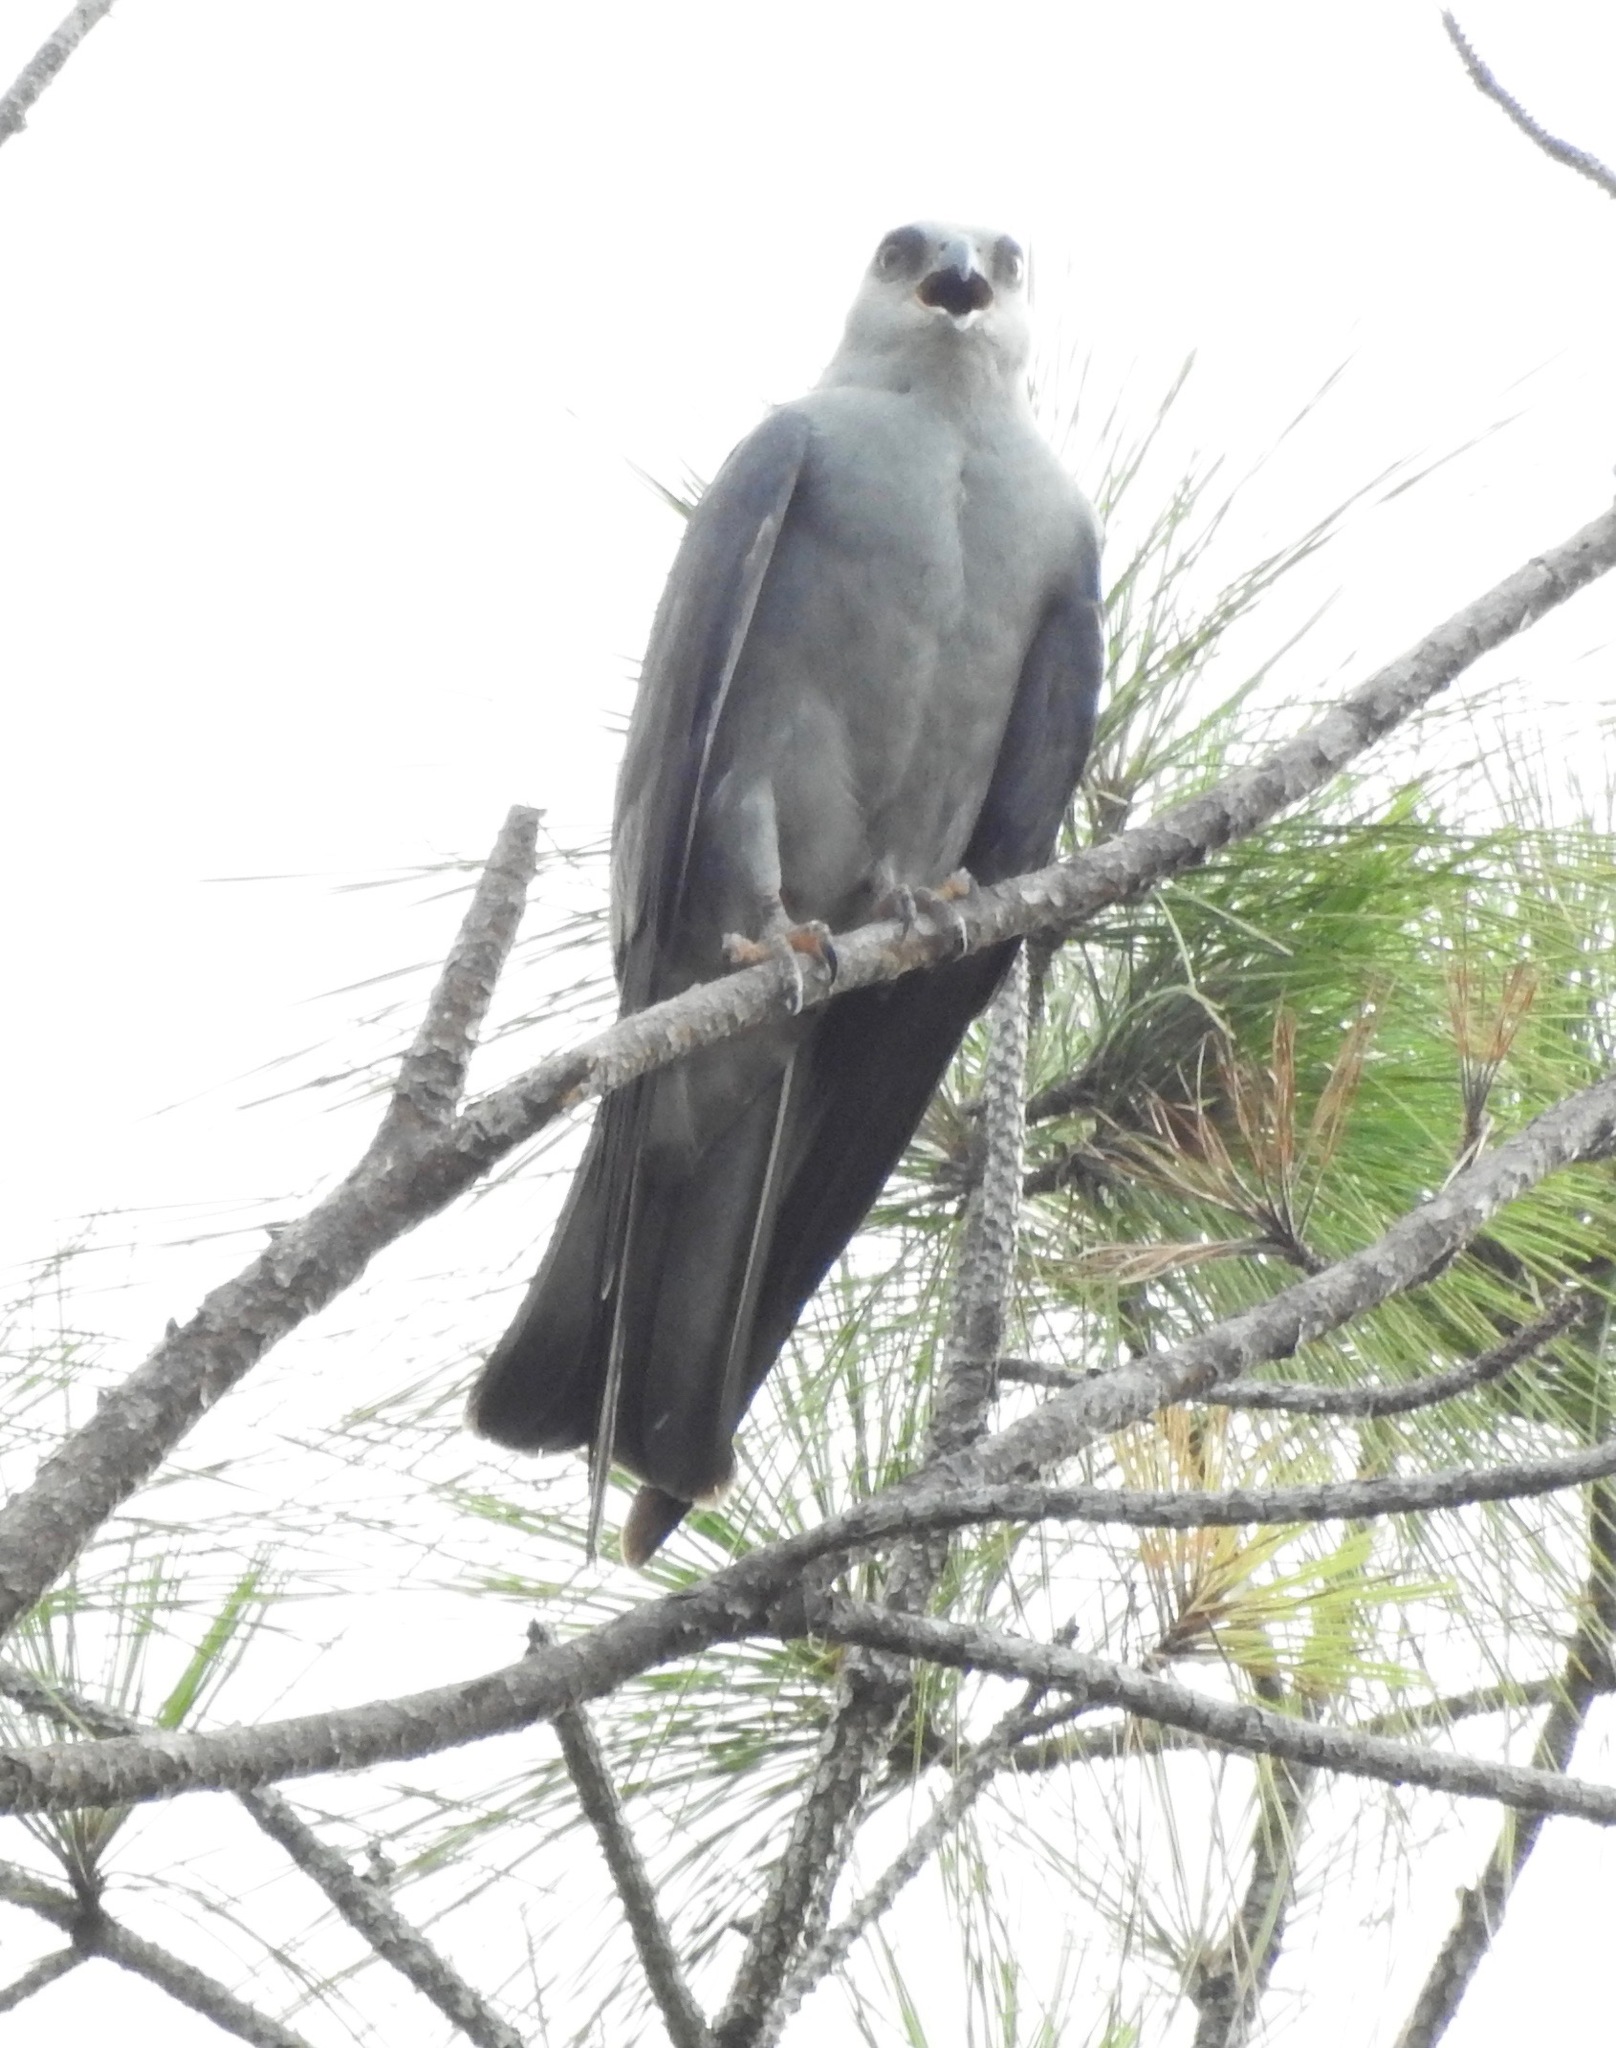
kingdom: Animalia
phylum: Chordata
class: Aves
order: Accipitriformes
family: Accipitridae
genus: Ictinia
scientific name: Ictinia mississippiensis
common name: Mississippi kite
